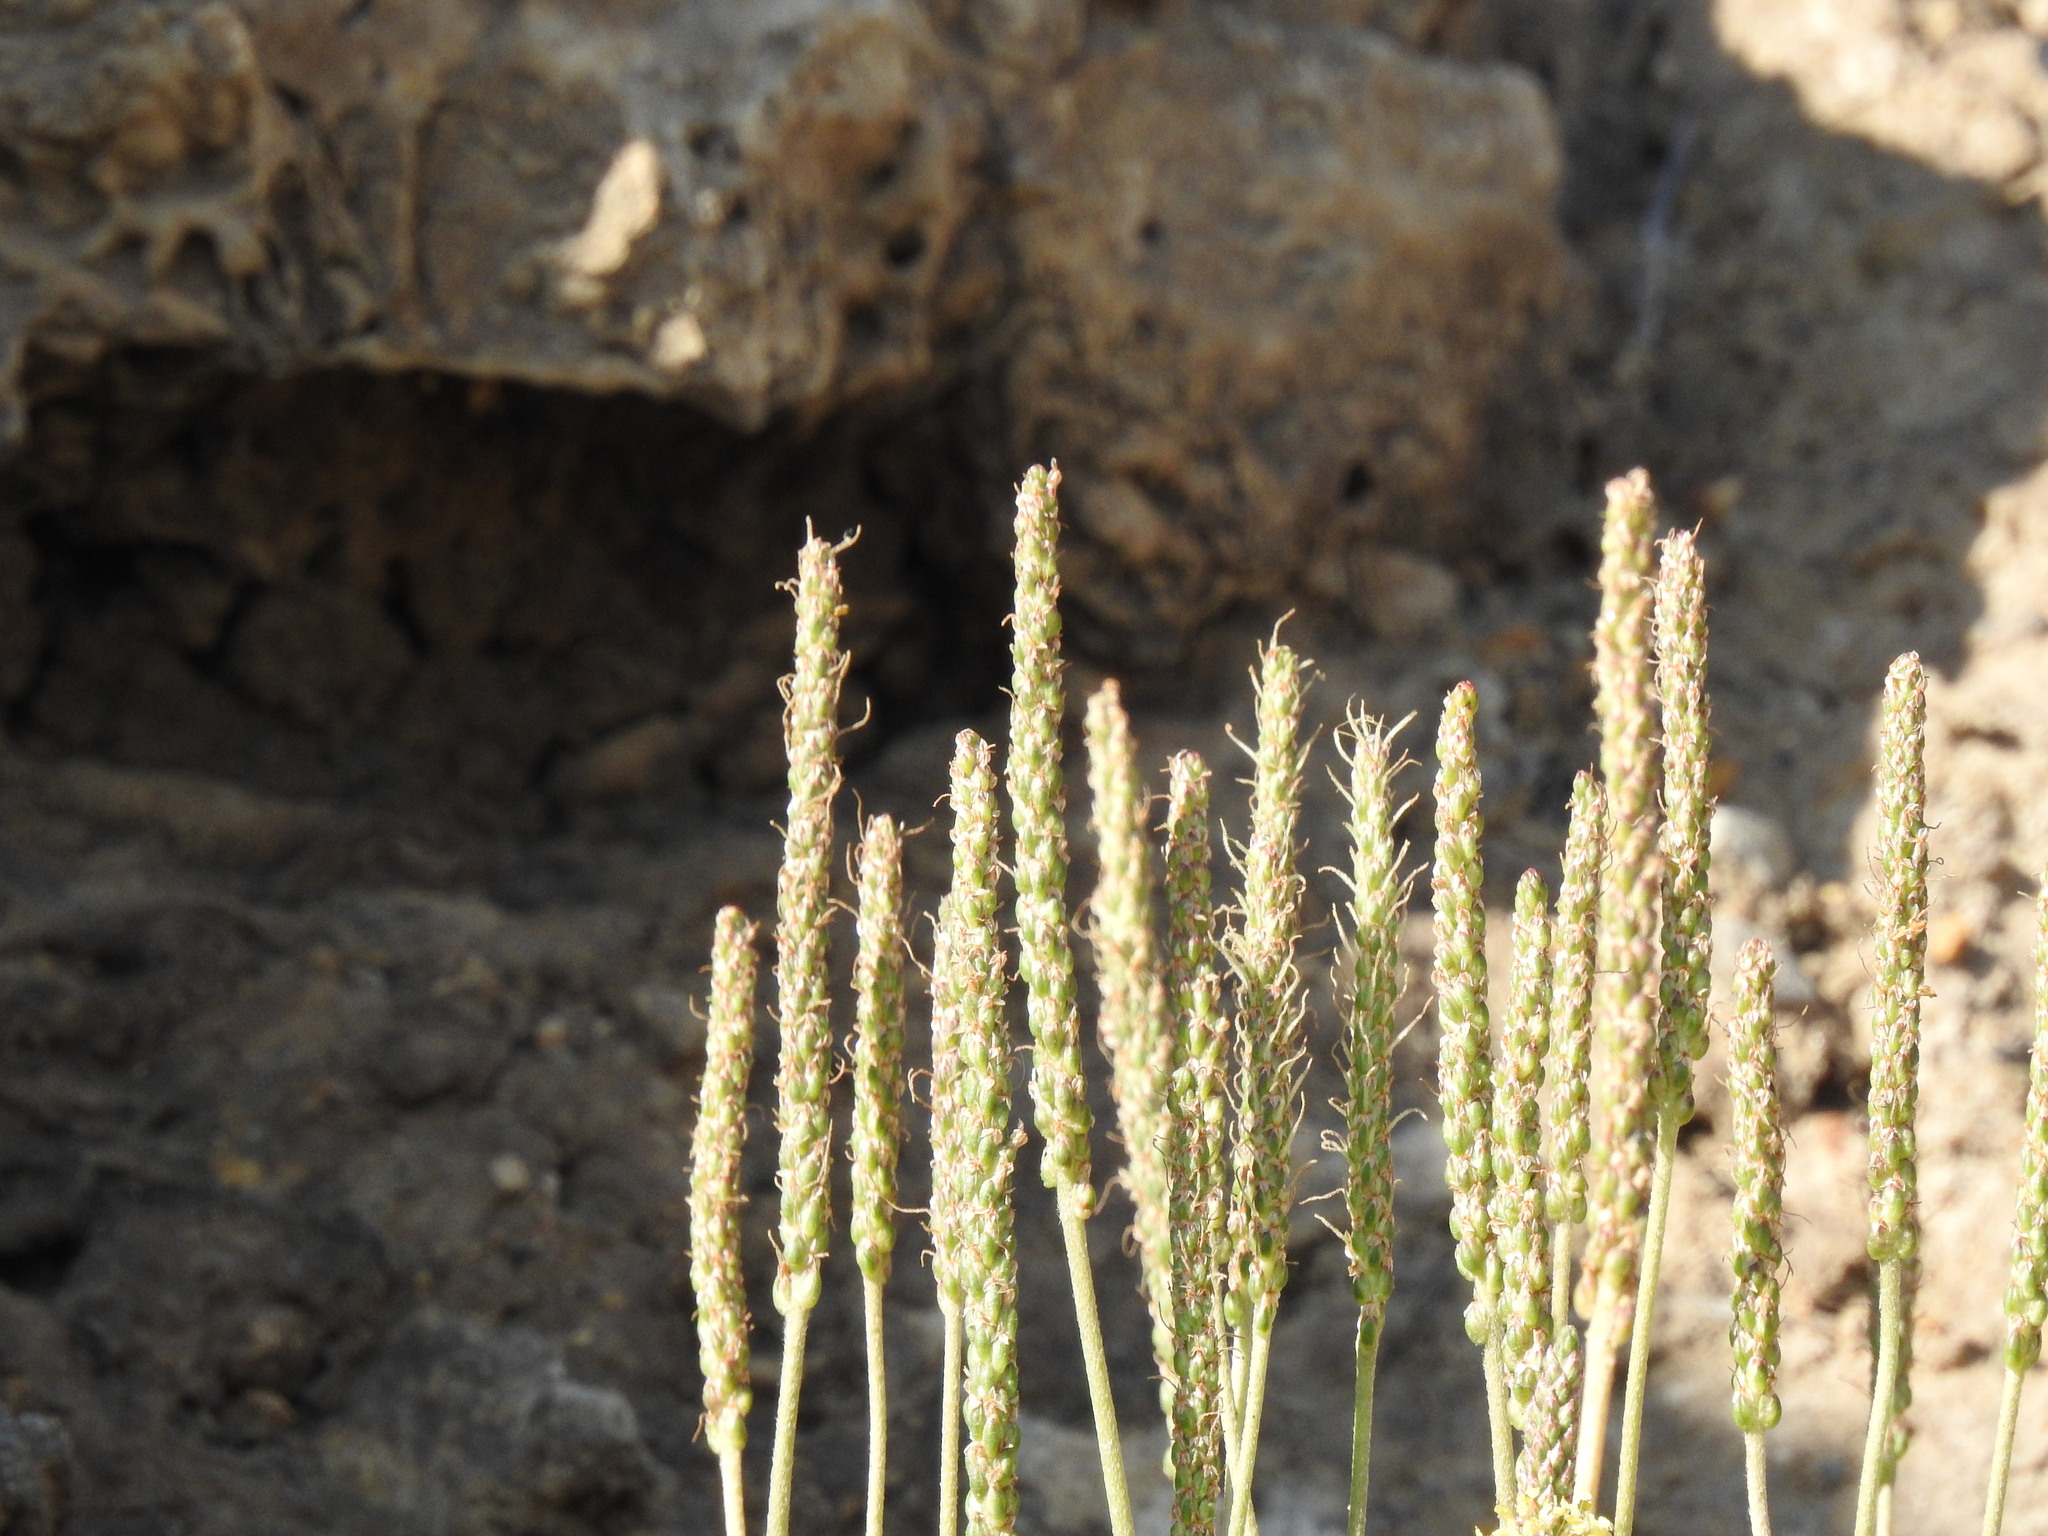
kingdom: Plantae
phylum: Tracheophyta
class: Magnoliopsida
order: Lamiales
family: Plantaginaceae
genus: Plantago
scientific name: Plantago maritima
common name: Sea plantain
